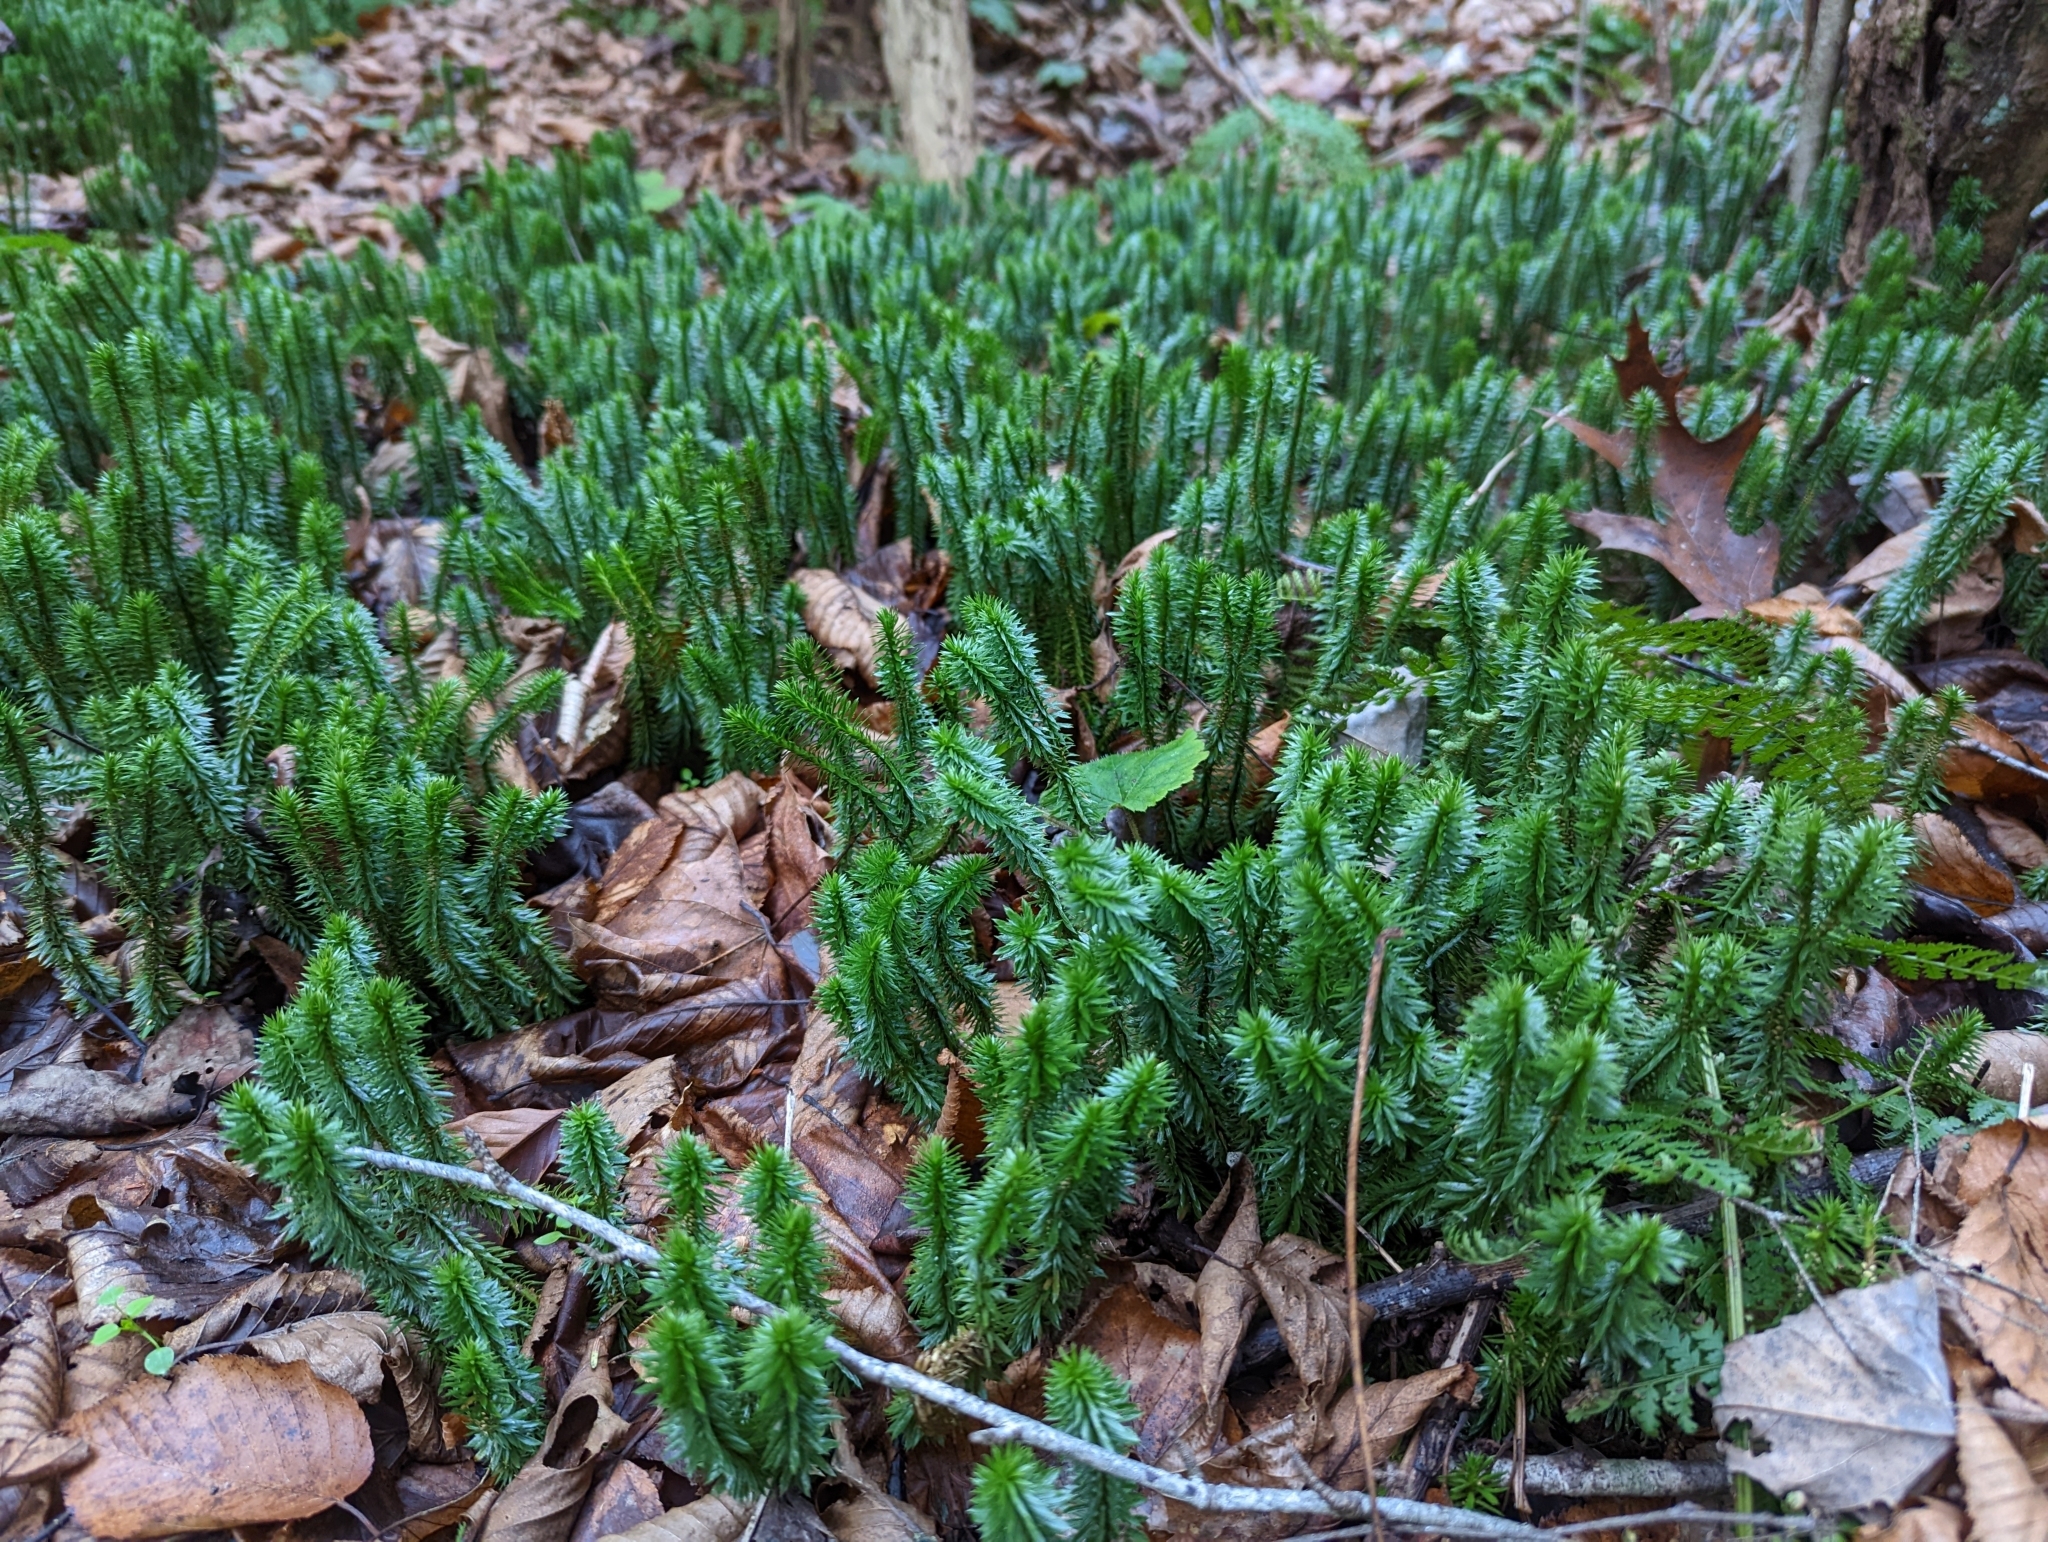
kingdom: Plantae
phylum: Tracheophyta
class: Lycopodiopsida
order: Lycopodiales
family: Lycopodiaceae
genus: Huperzia
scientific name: Huperzia lucidula
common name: Shining clubmoss
